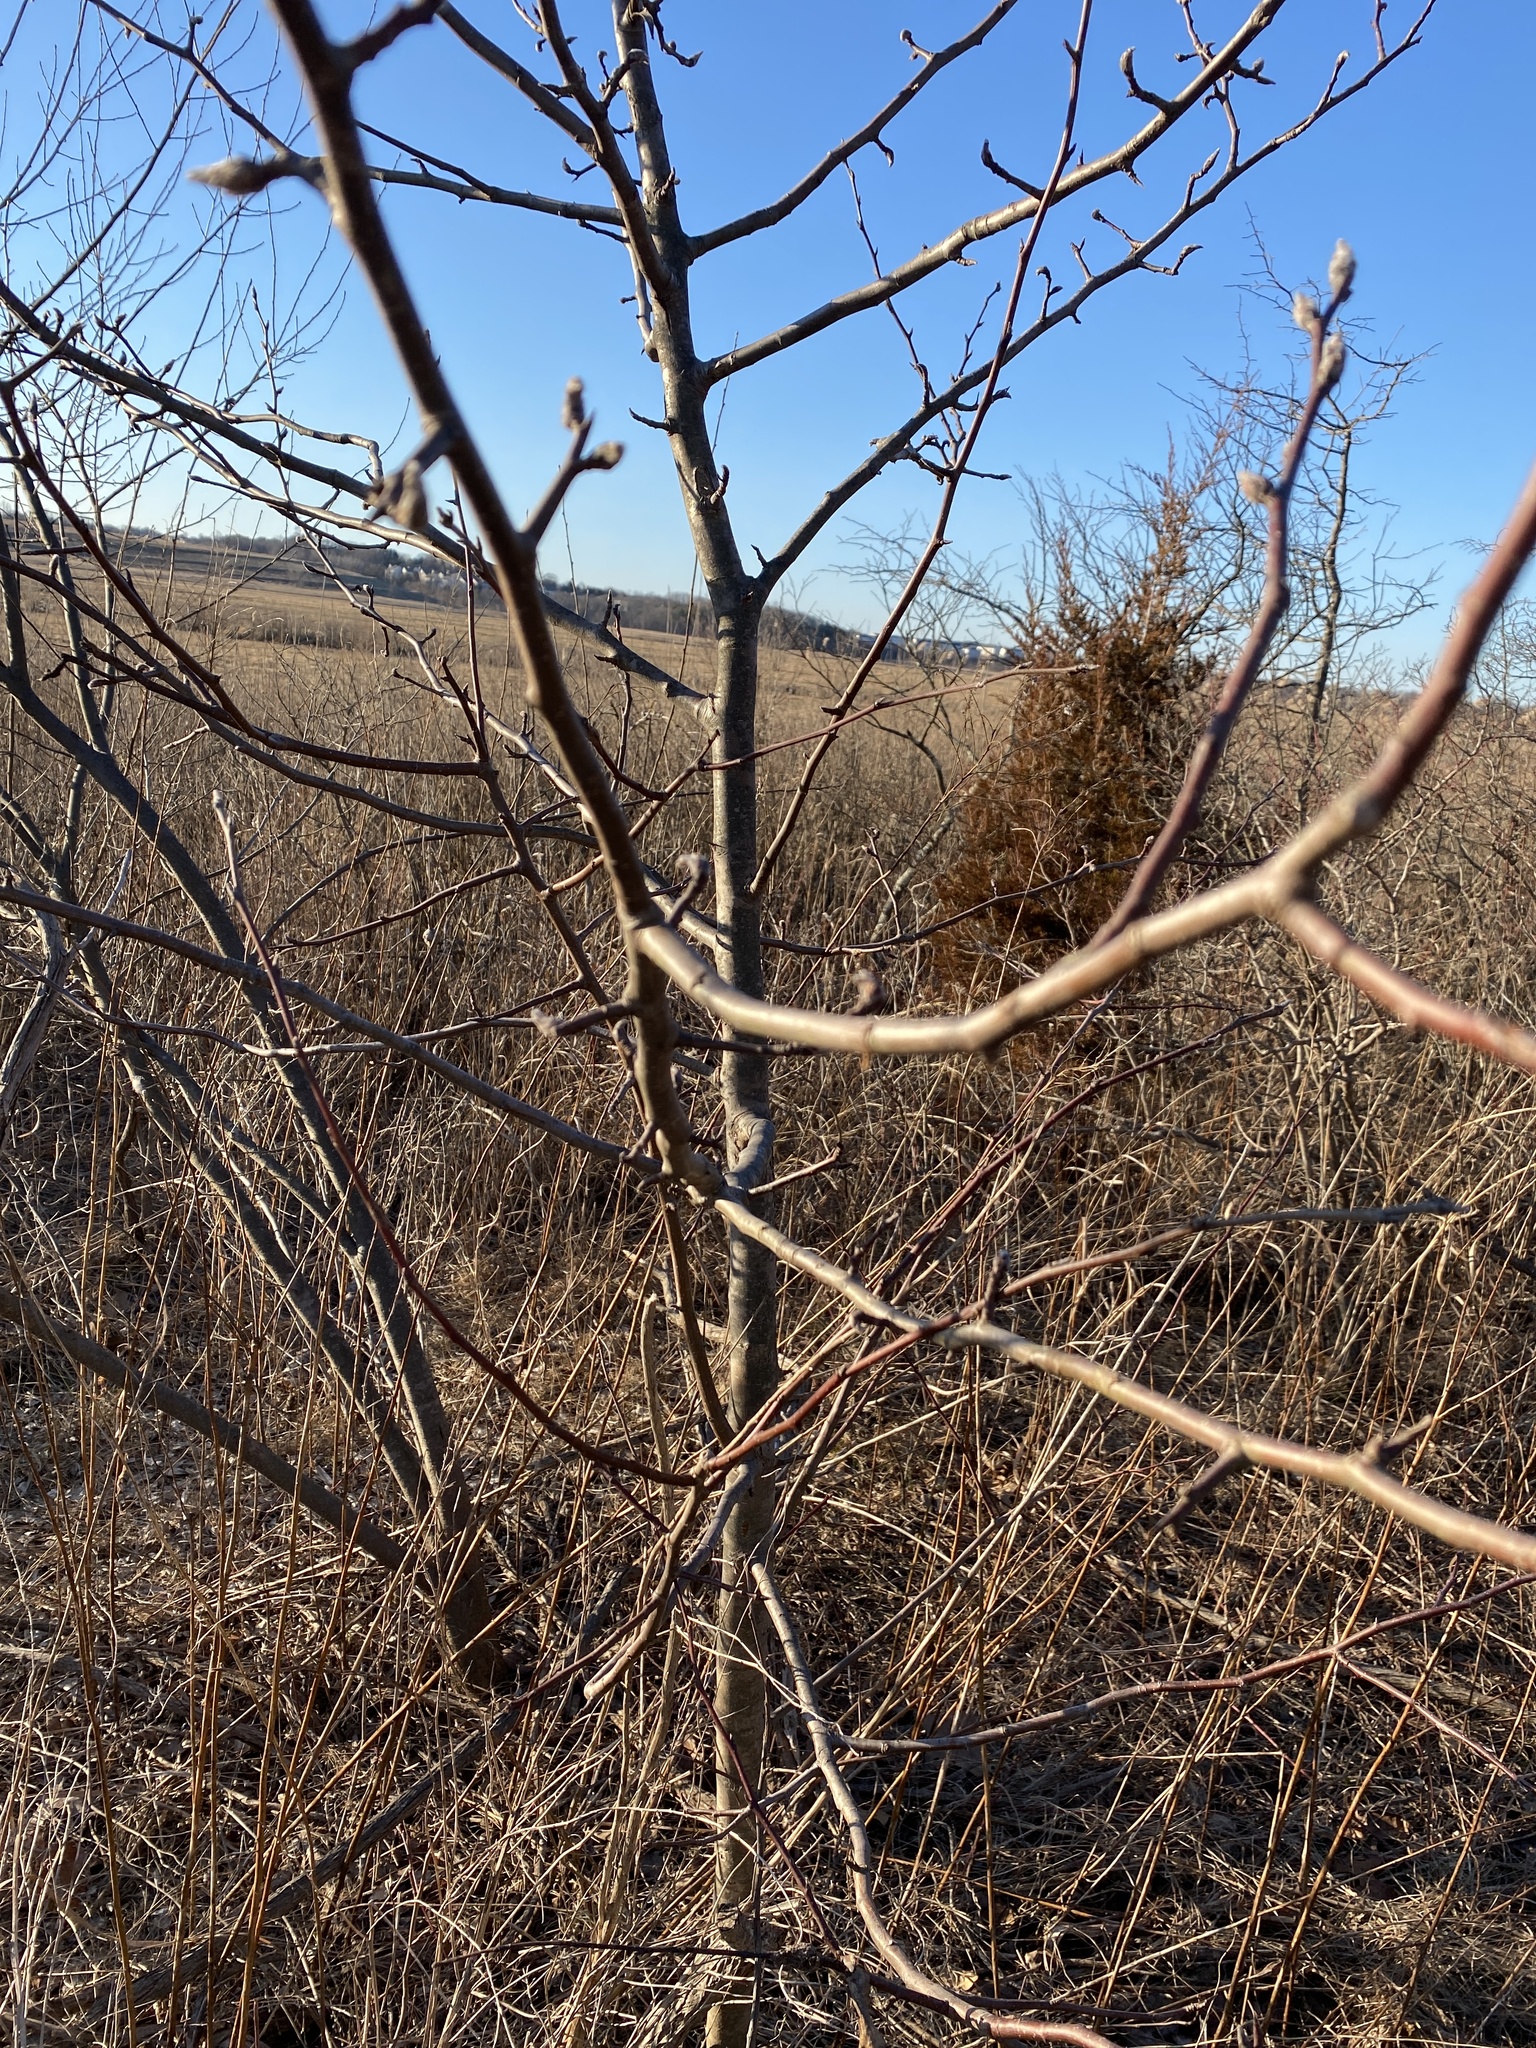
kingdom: Plantae
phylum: Tracheophyta
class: Magnoliopsida
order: Rosales
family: Rosaceae
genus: Pyrus
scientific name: Pyrus calleryana
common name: Callery pear
